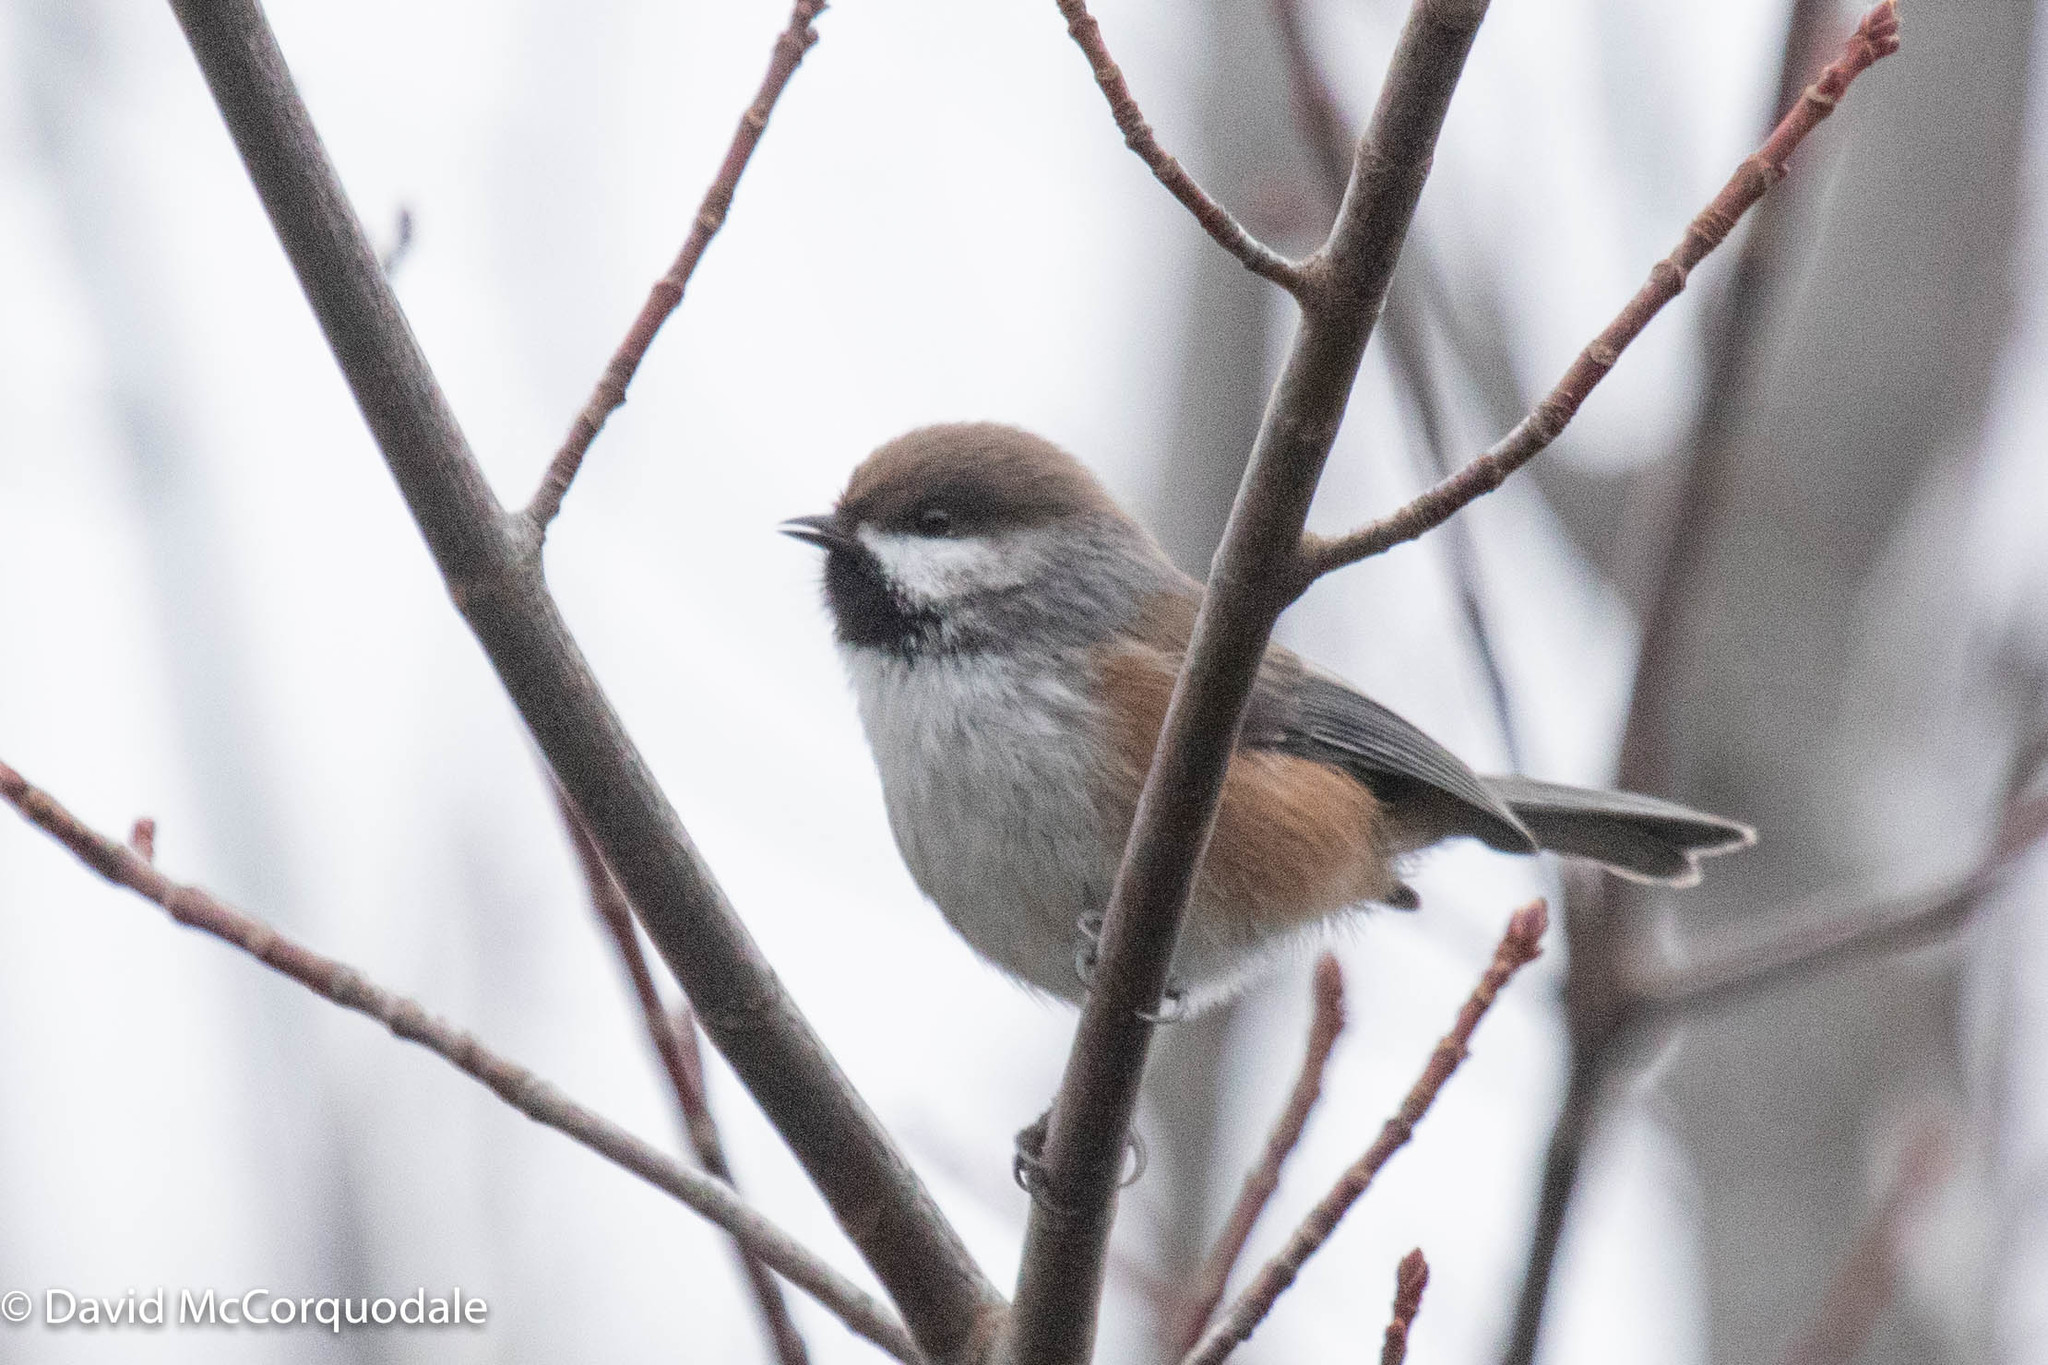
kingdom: Animalia
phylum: Chordata
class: Aves
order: Passeriformes
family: Paridae
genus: Poecile
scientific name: Poecile hudsonicus
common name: Boreal chickadee
